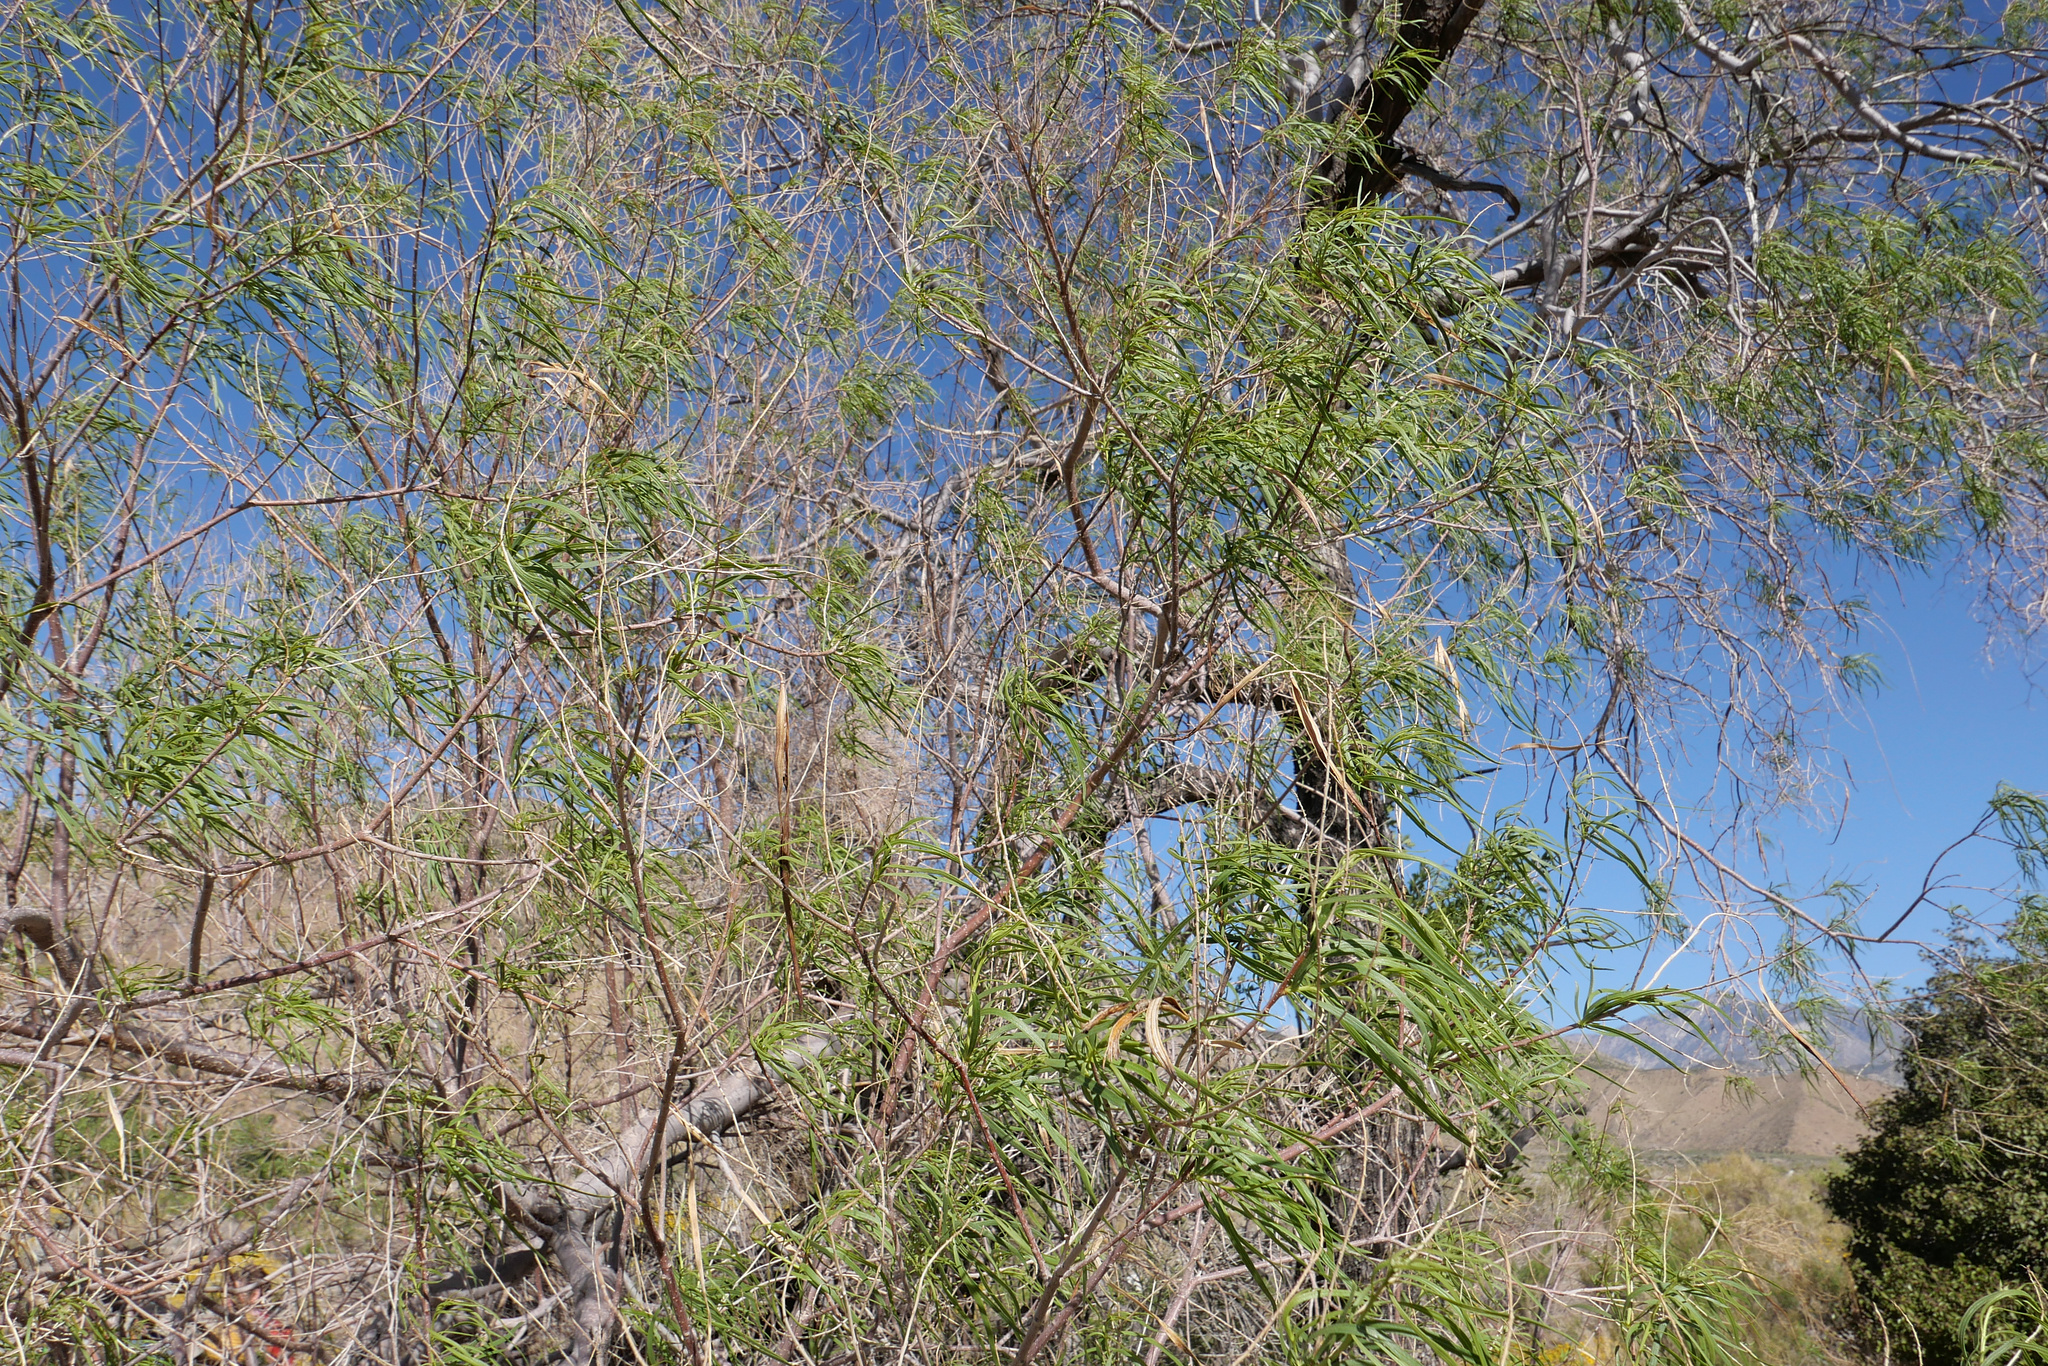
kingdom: Plantae
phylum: Tracheophyta
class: Magnoliopsida
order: Lamiales
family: Bignoniaceae
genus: Chilopsis
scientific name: Chilopsis linearis
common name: Desert-willow
